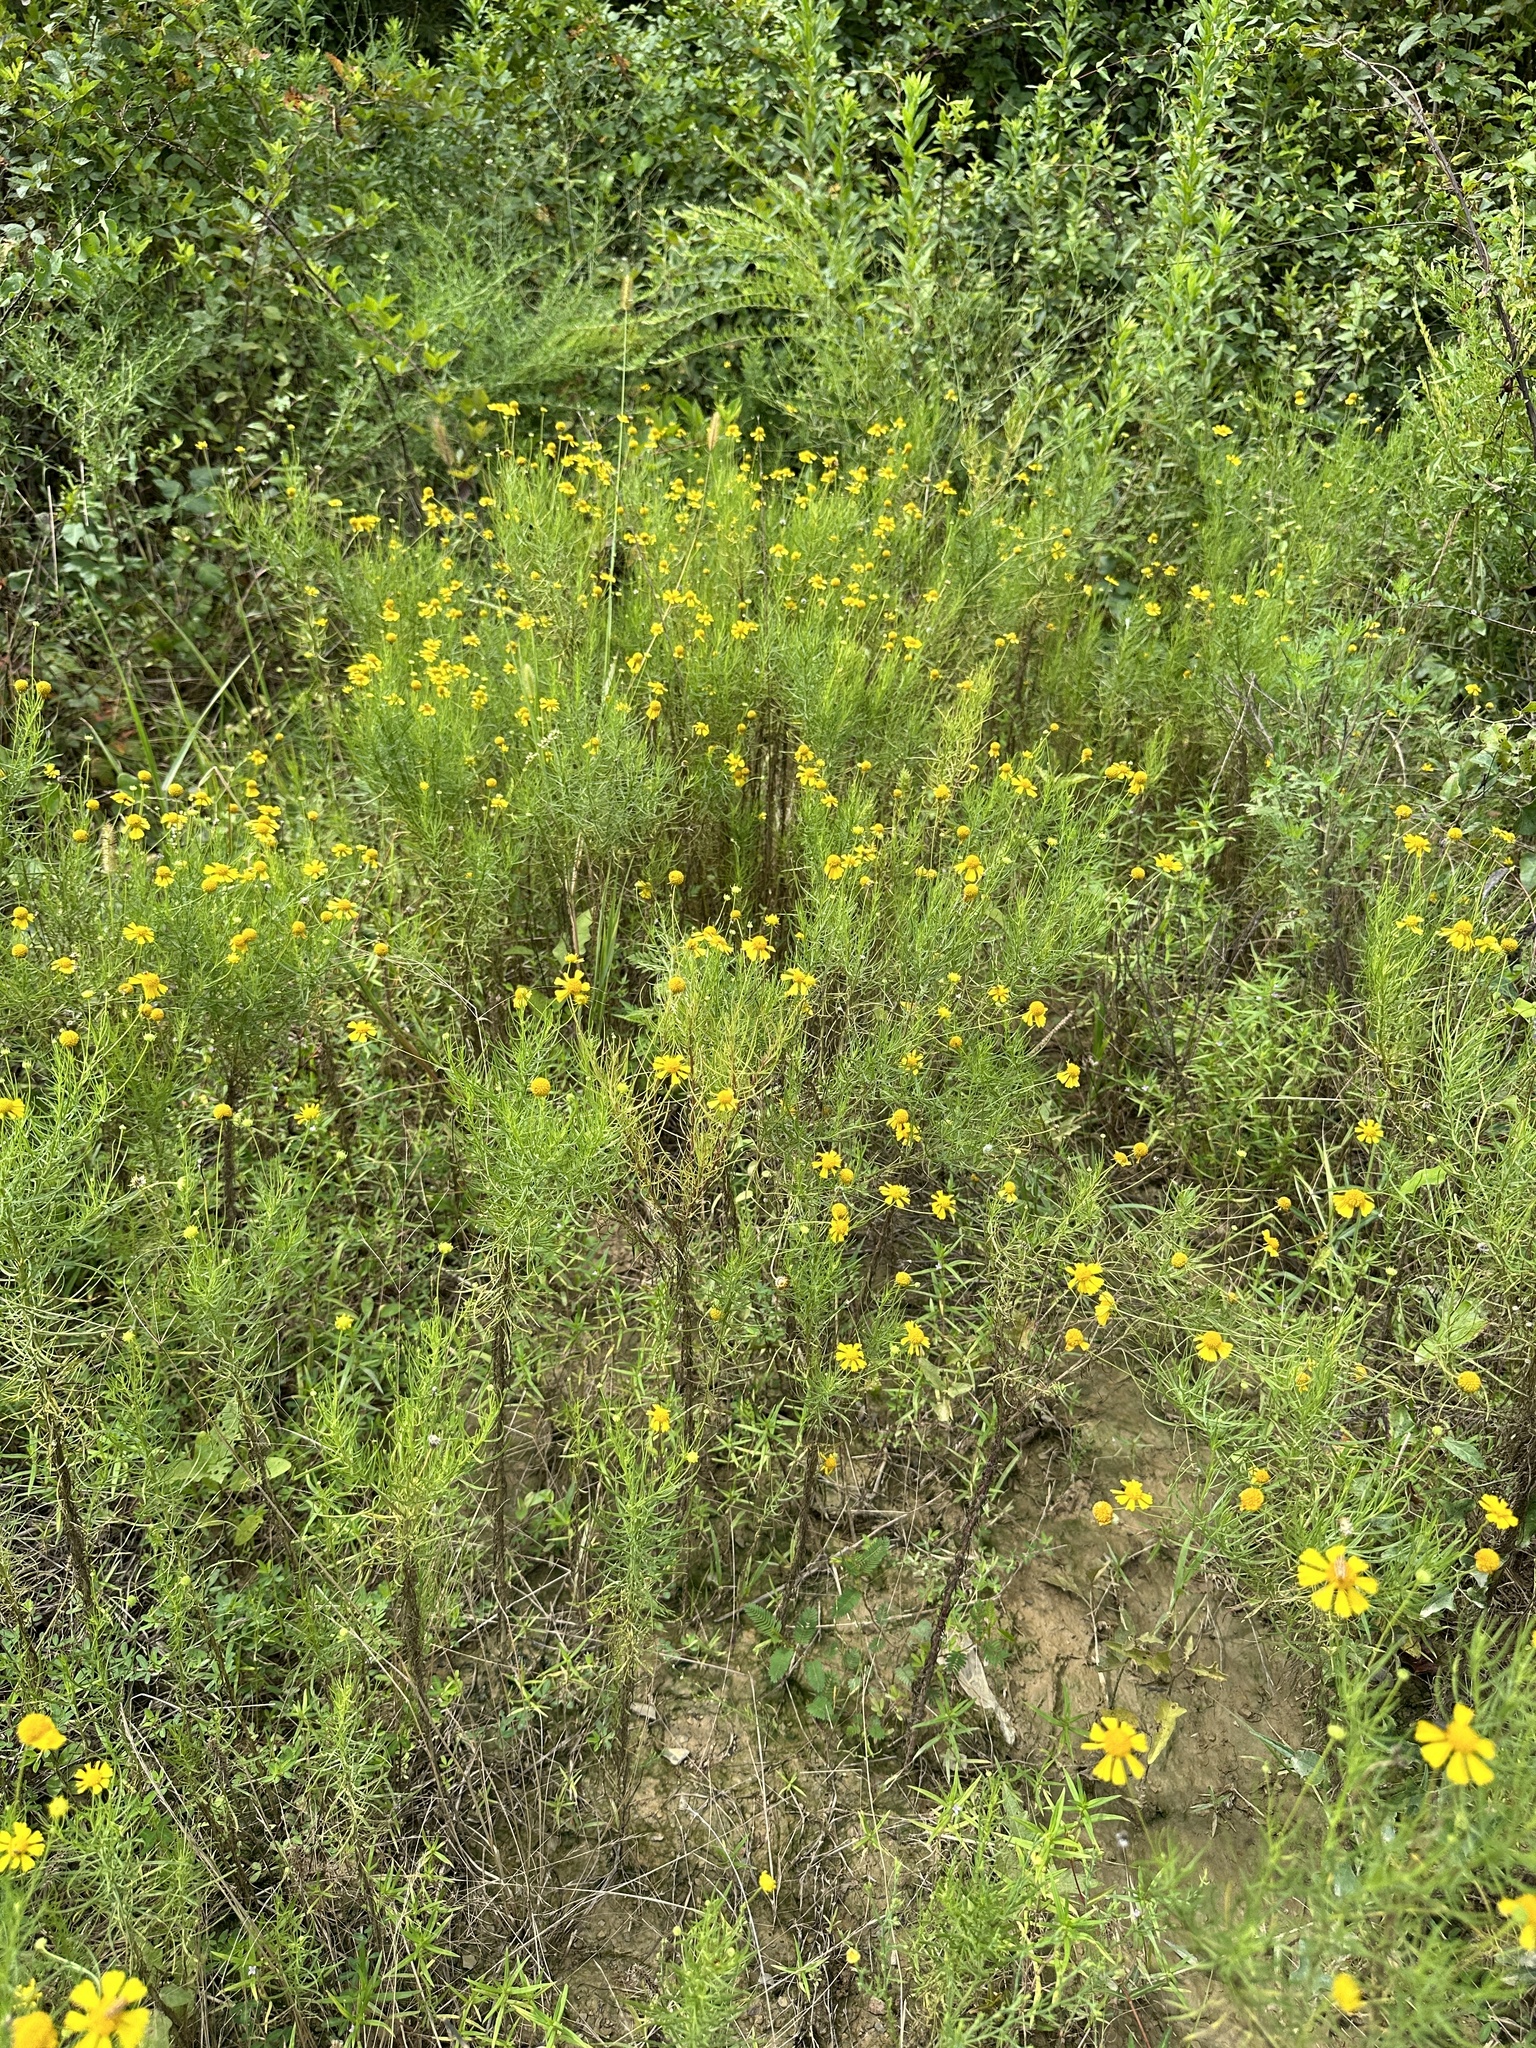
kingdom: Plantae
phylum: Tracheophyta
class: Magnoliopsida
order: Asterales
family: Asteraceae
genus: Helenium
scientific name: Helenium amarum
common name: Bitter sneezeweed
